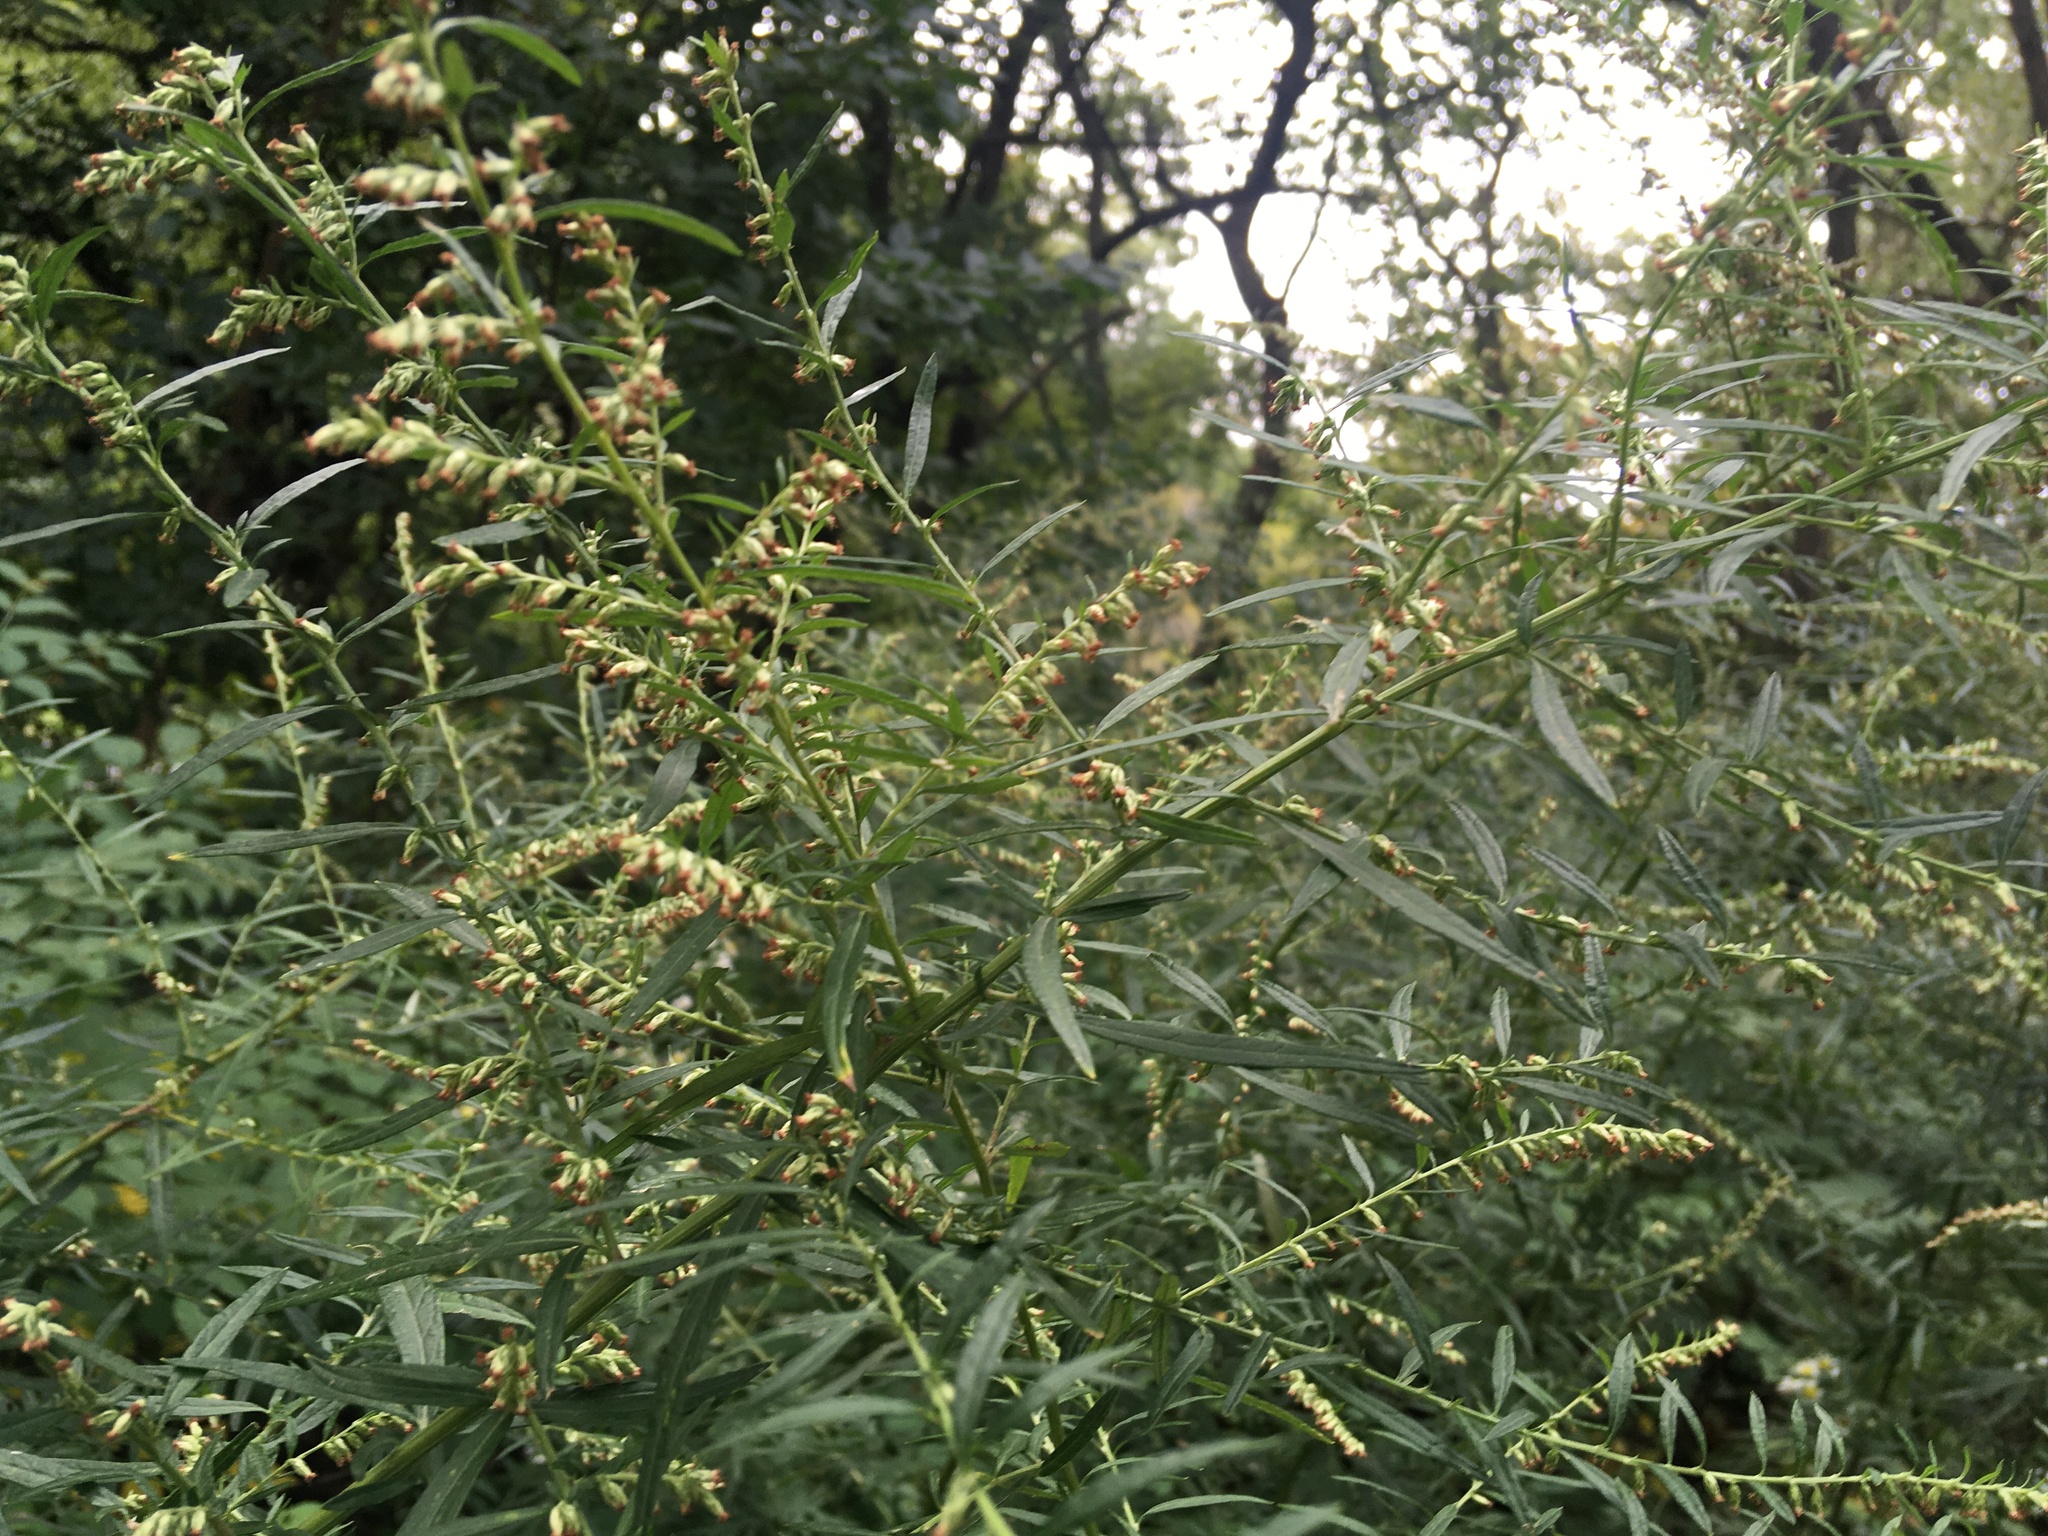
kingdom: Plantae
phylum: Tracheophyta
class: Magnoliopsida
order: Asterales
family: Asteraceae
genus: Artemisia
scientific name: Artemisia vulgaris
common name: Mugwort
